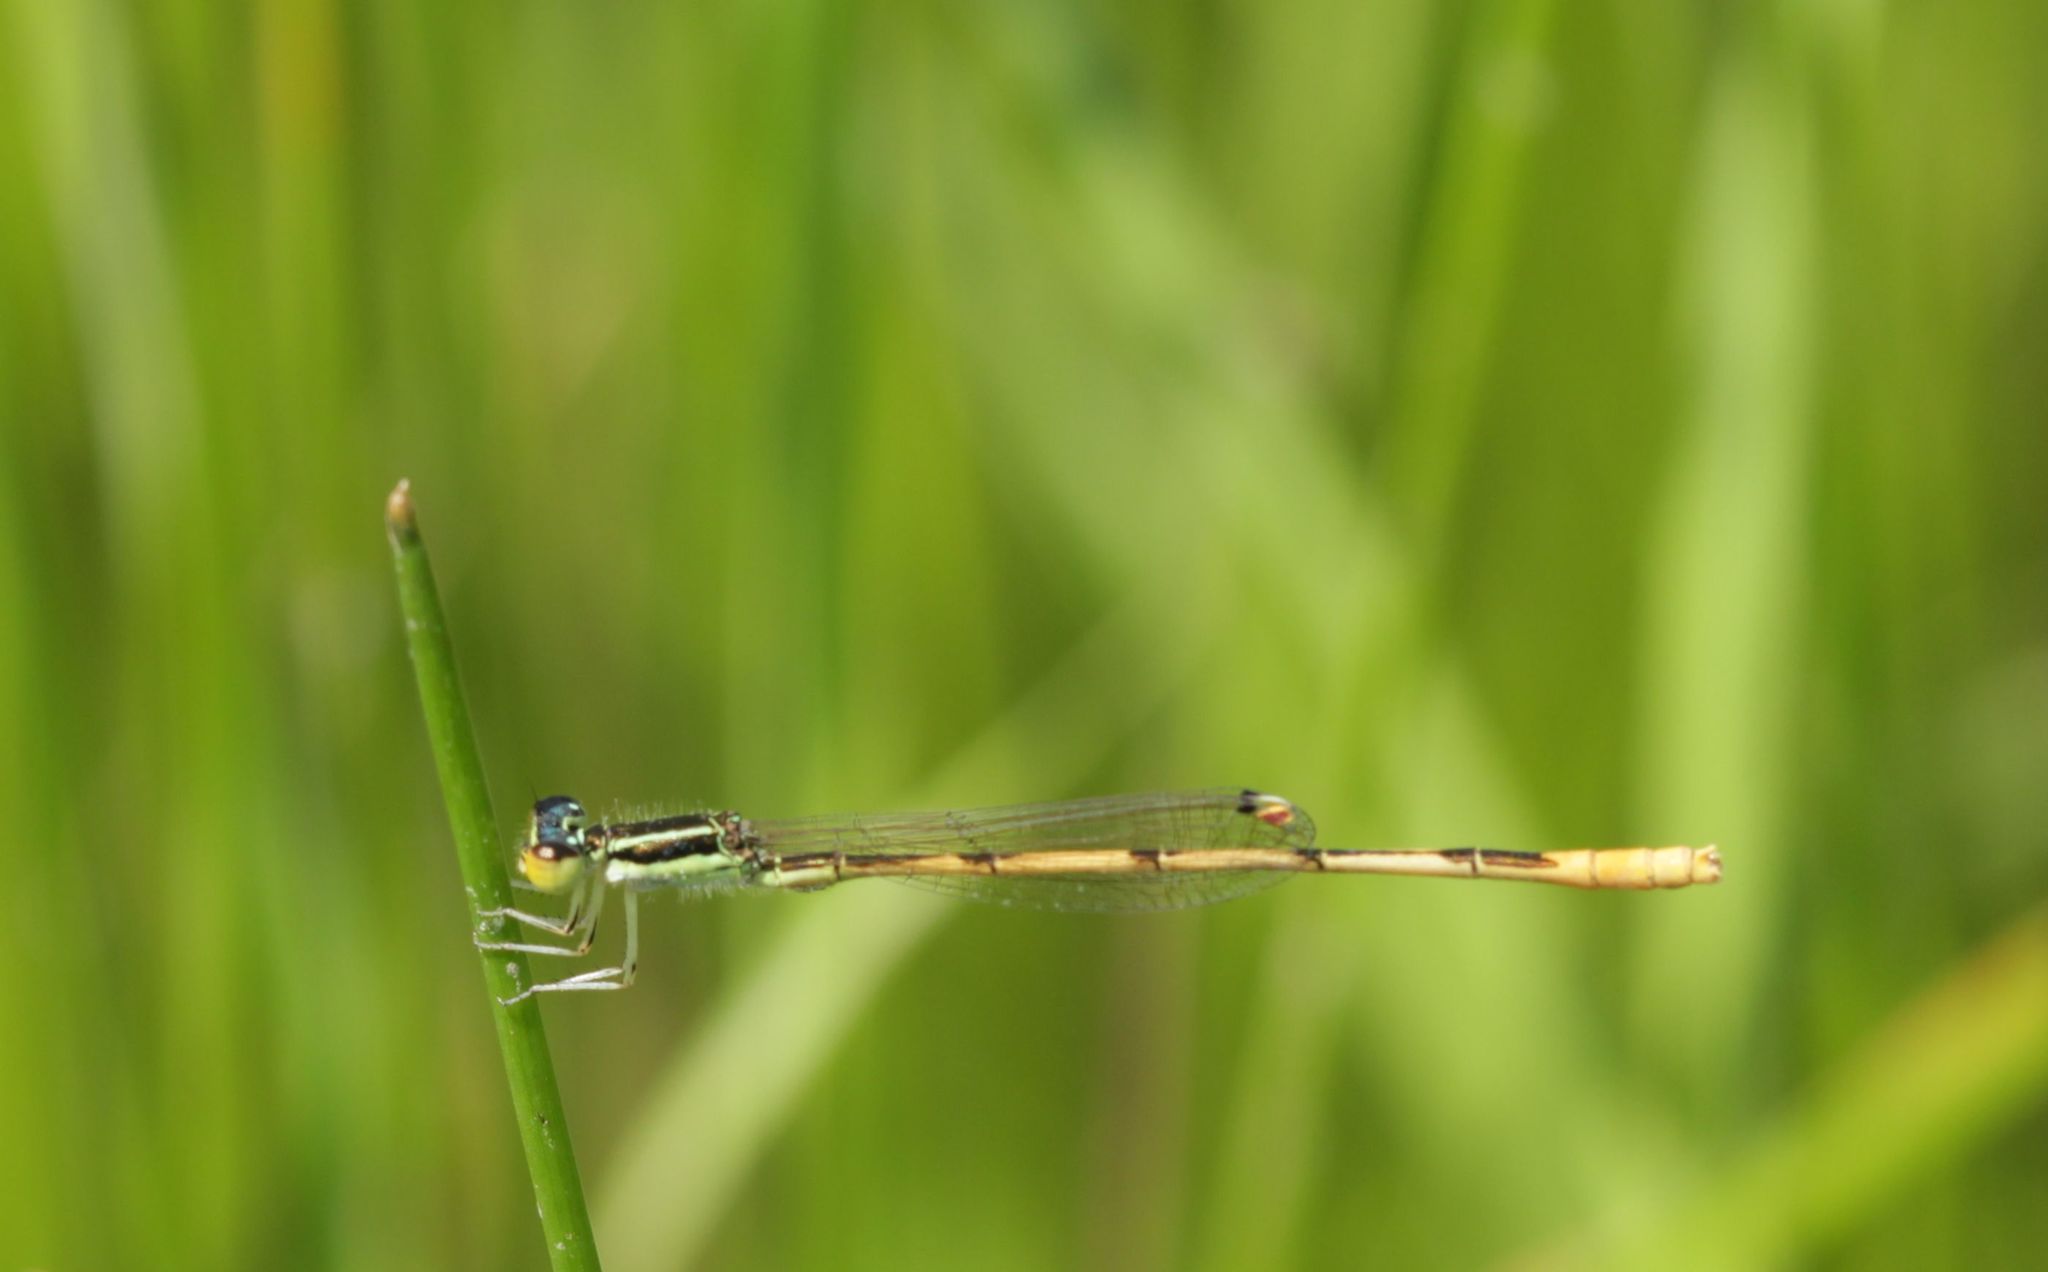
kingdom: Animalia
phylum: Arthropoda
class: Insecta
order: Odonata
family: Coenagrionidae
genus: Ischnura
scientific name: Ischnura hastata
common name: Citrine forktail
